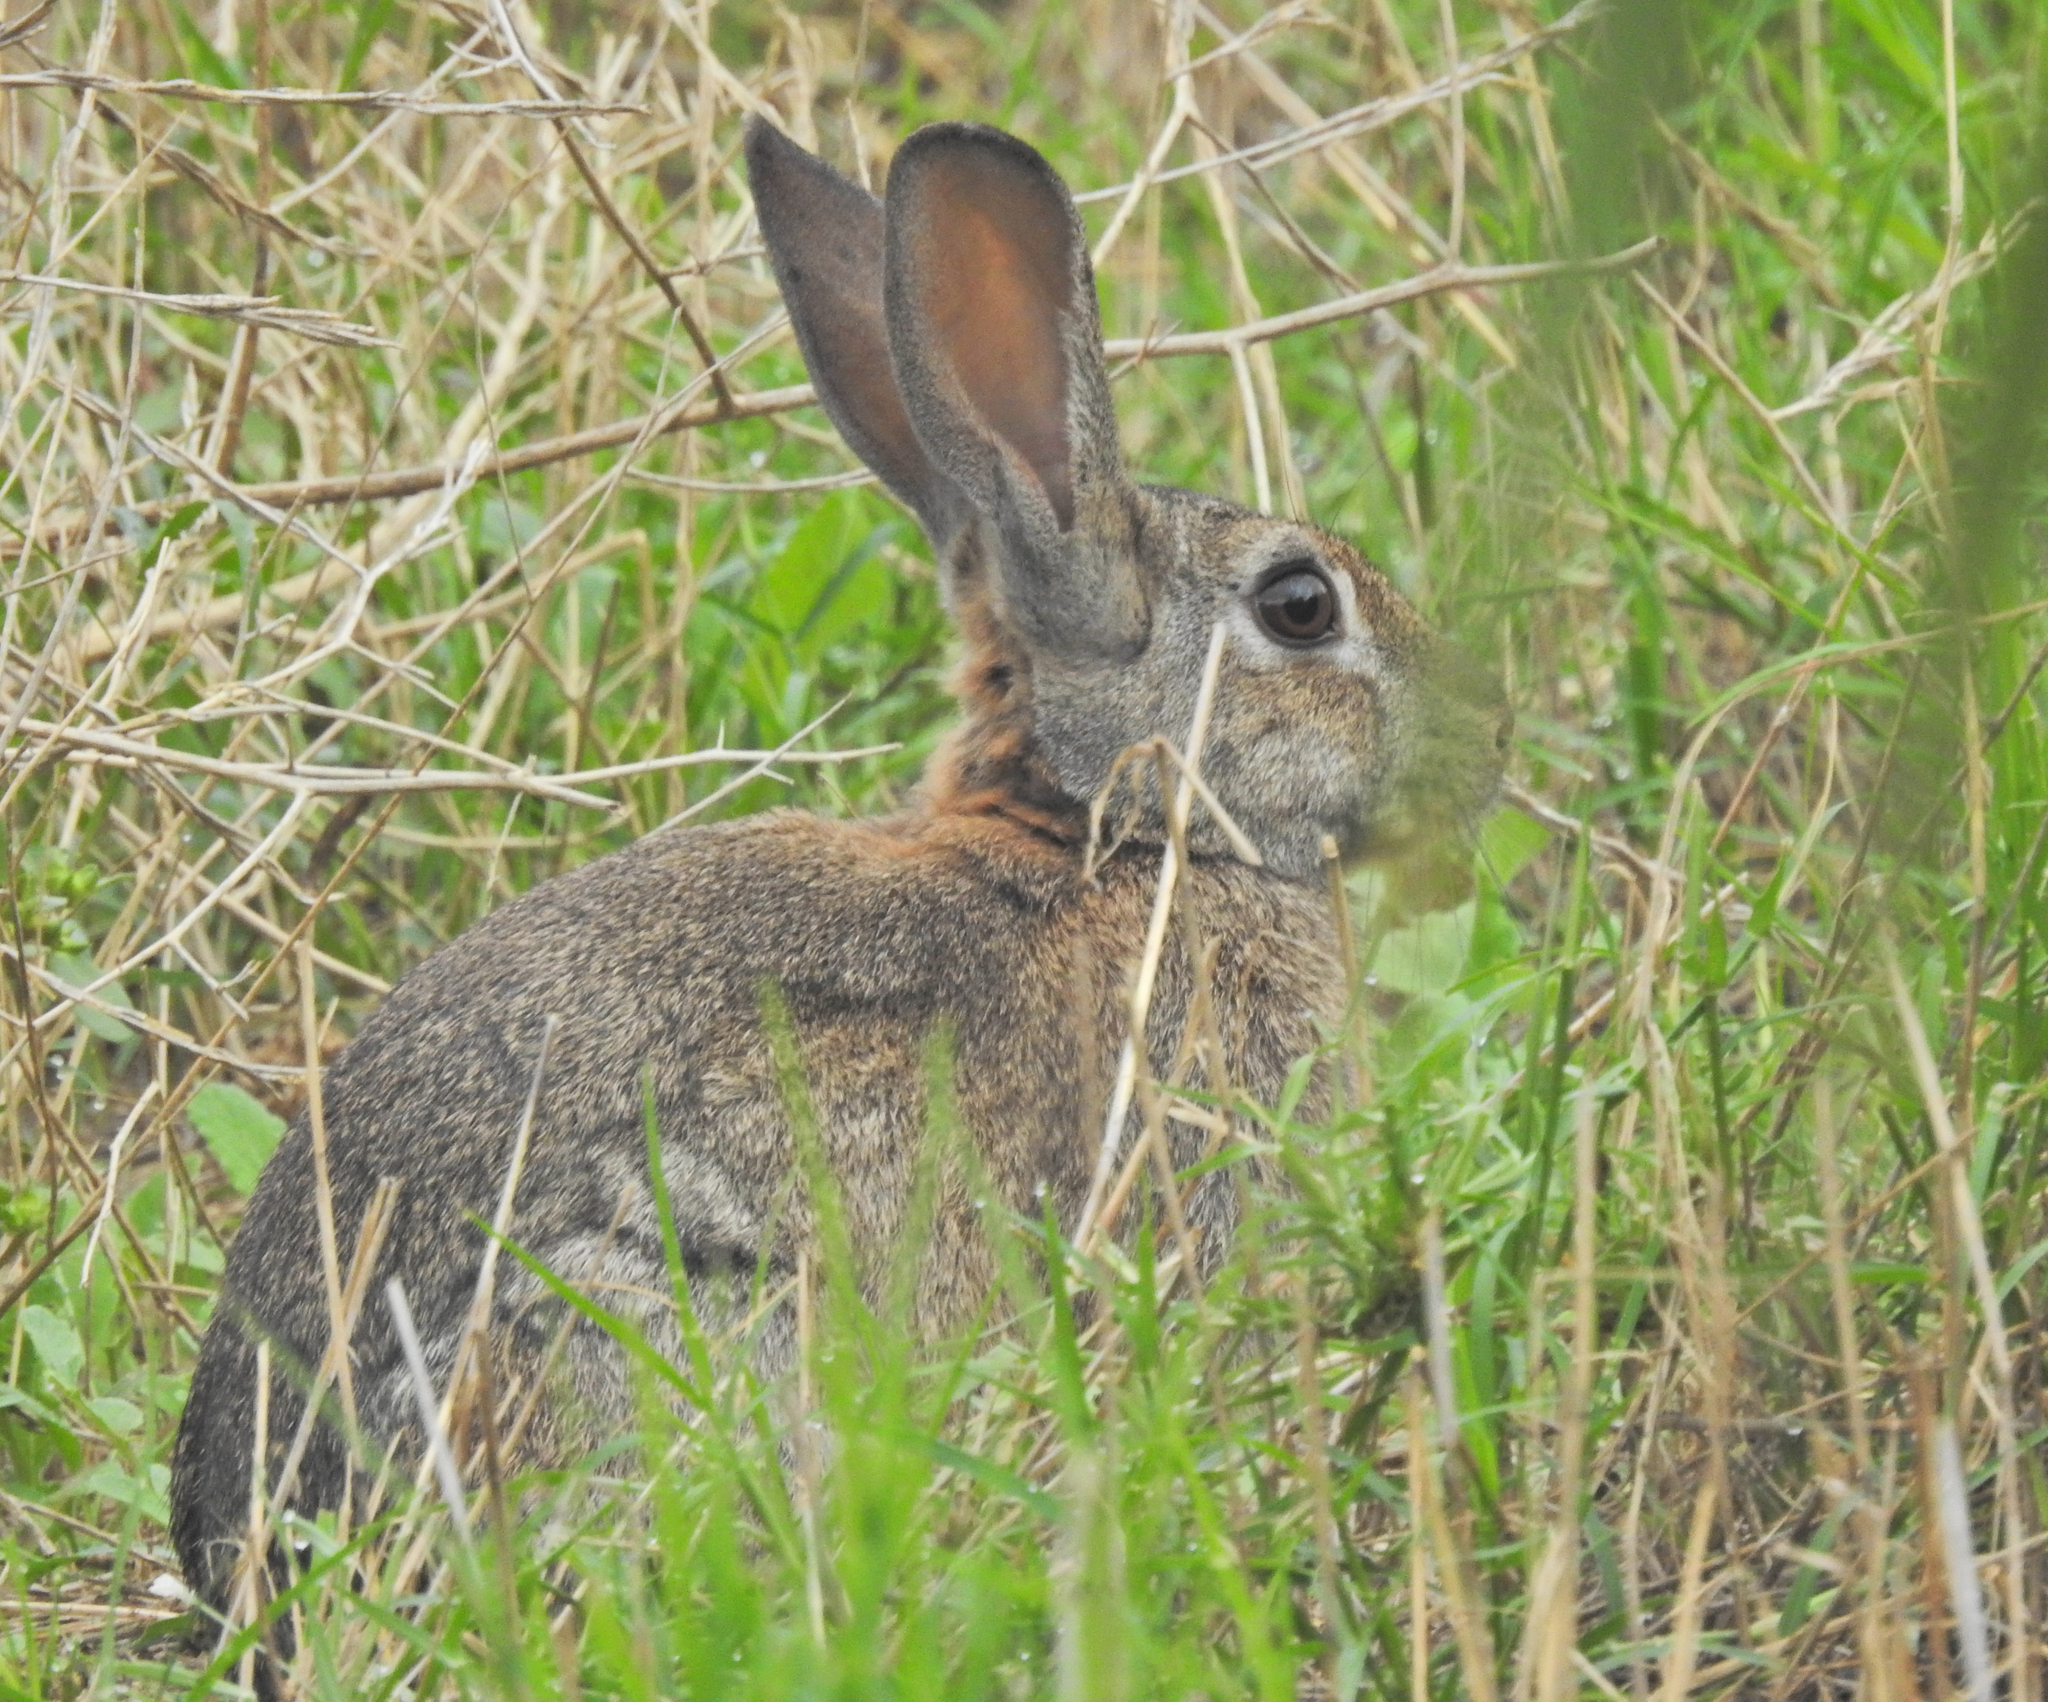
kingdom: Animalia
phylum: Chordata
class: Mammalia
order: Lagomorpha
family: Leporidae
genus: Oryctolagus
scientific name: Oryctolagus cuniculus
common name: European rabbit
